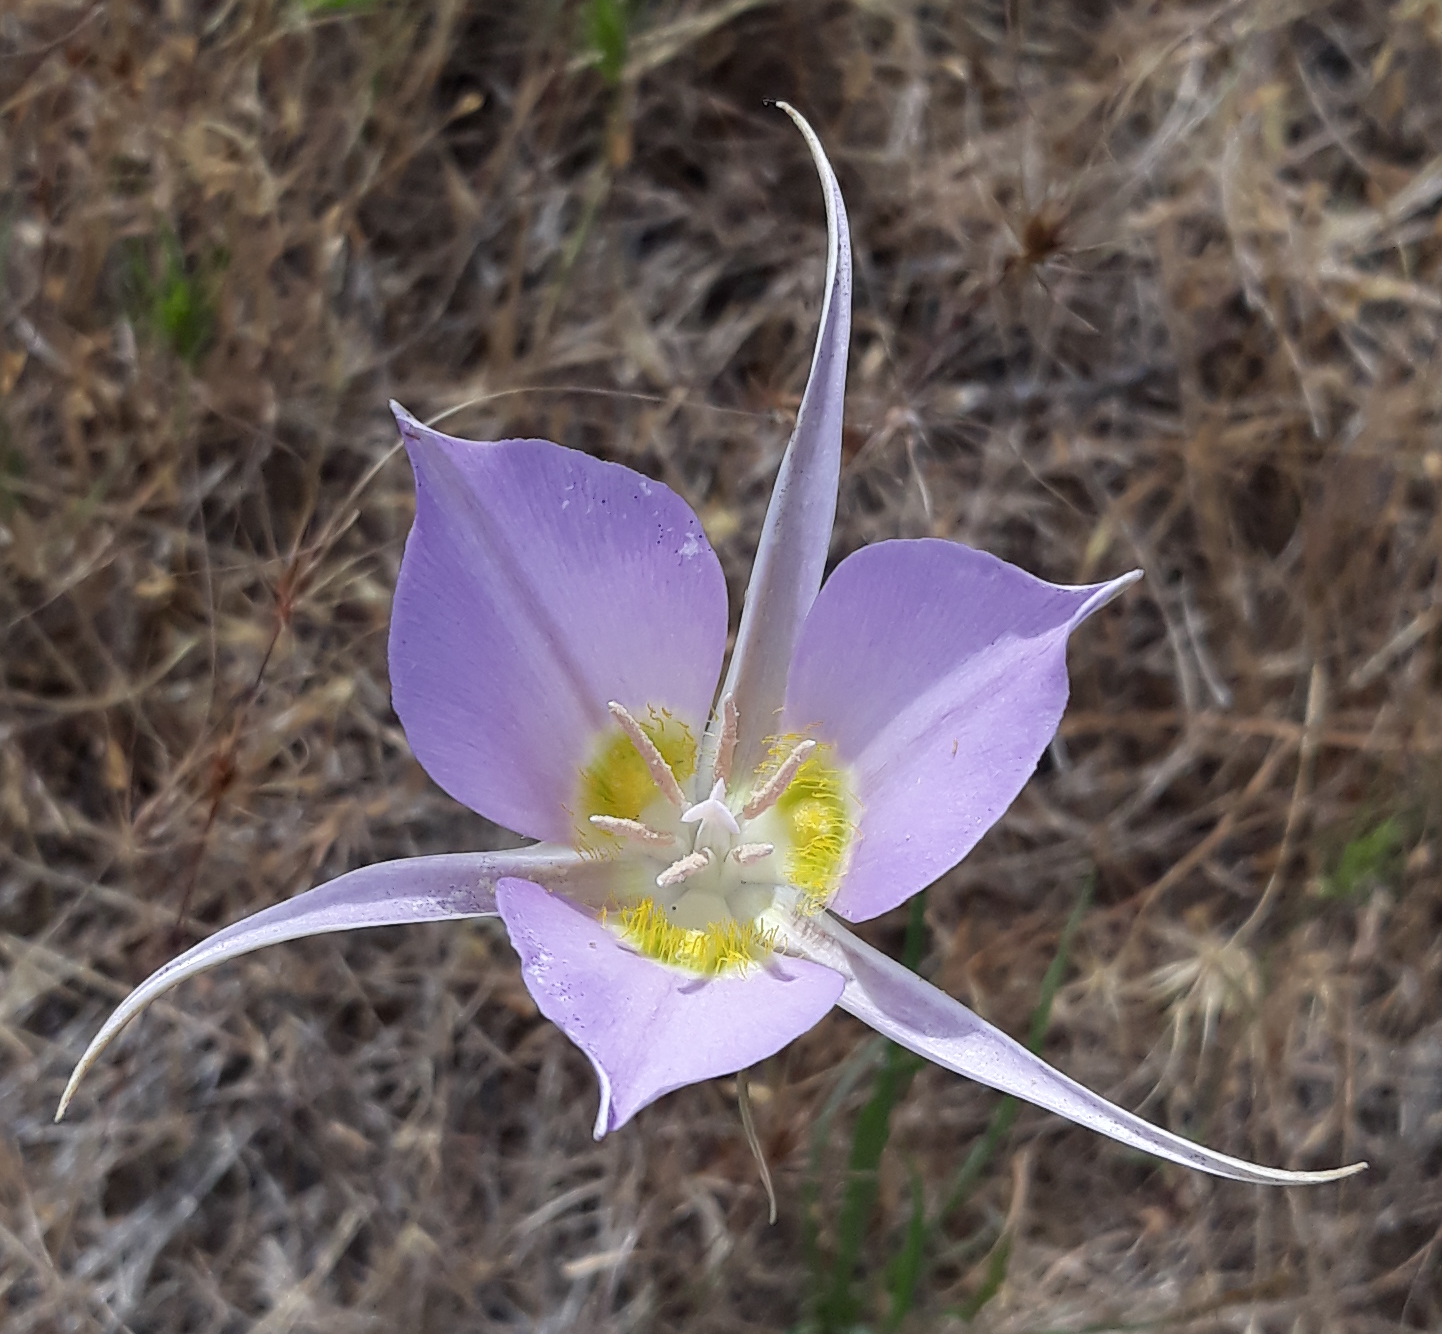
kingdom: Plantae
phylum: Tracheophyta
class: Liliopsida
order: Liliales
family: Liliaceae
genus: Calochortus
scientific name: Calochortus macrocarpus
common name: Green-band mariposa lily
